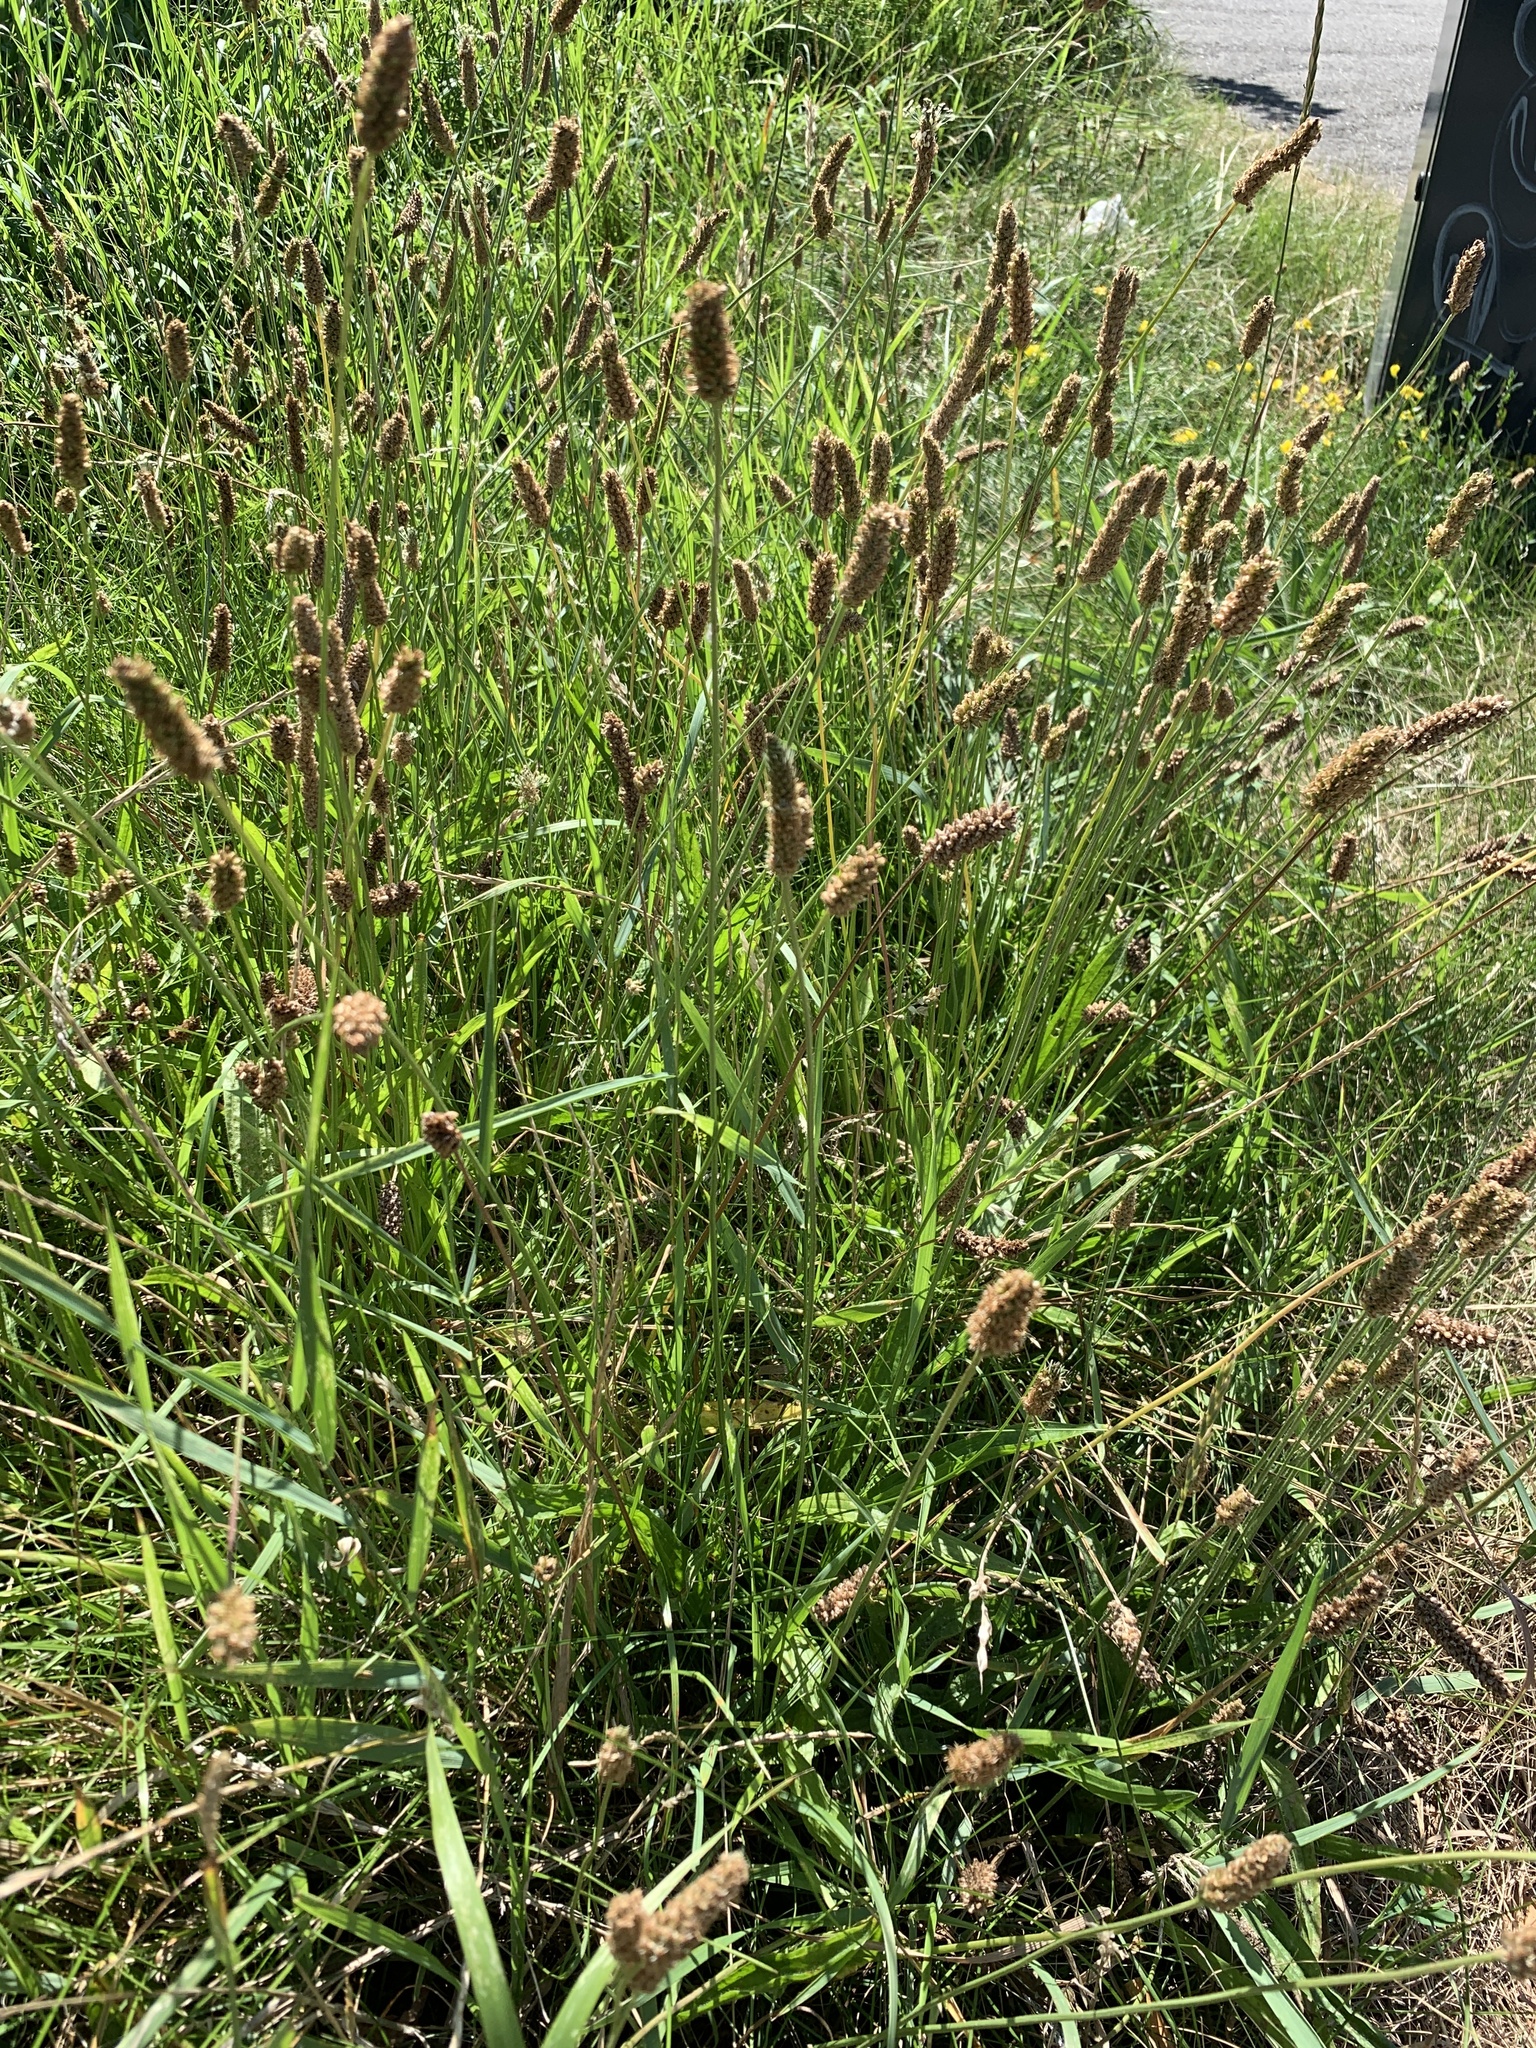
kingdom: Plantae
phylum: Tracheophyta
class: Magnoliopsida
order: Lamiales
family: Plantaginaceae
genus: Plantago
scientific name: Plantago lanceolata
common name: Ribwort plantain
